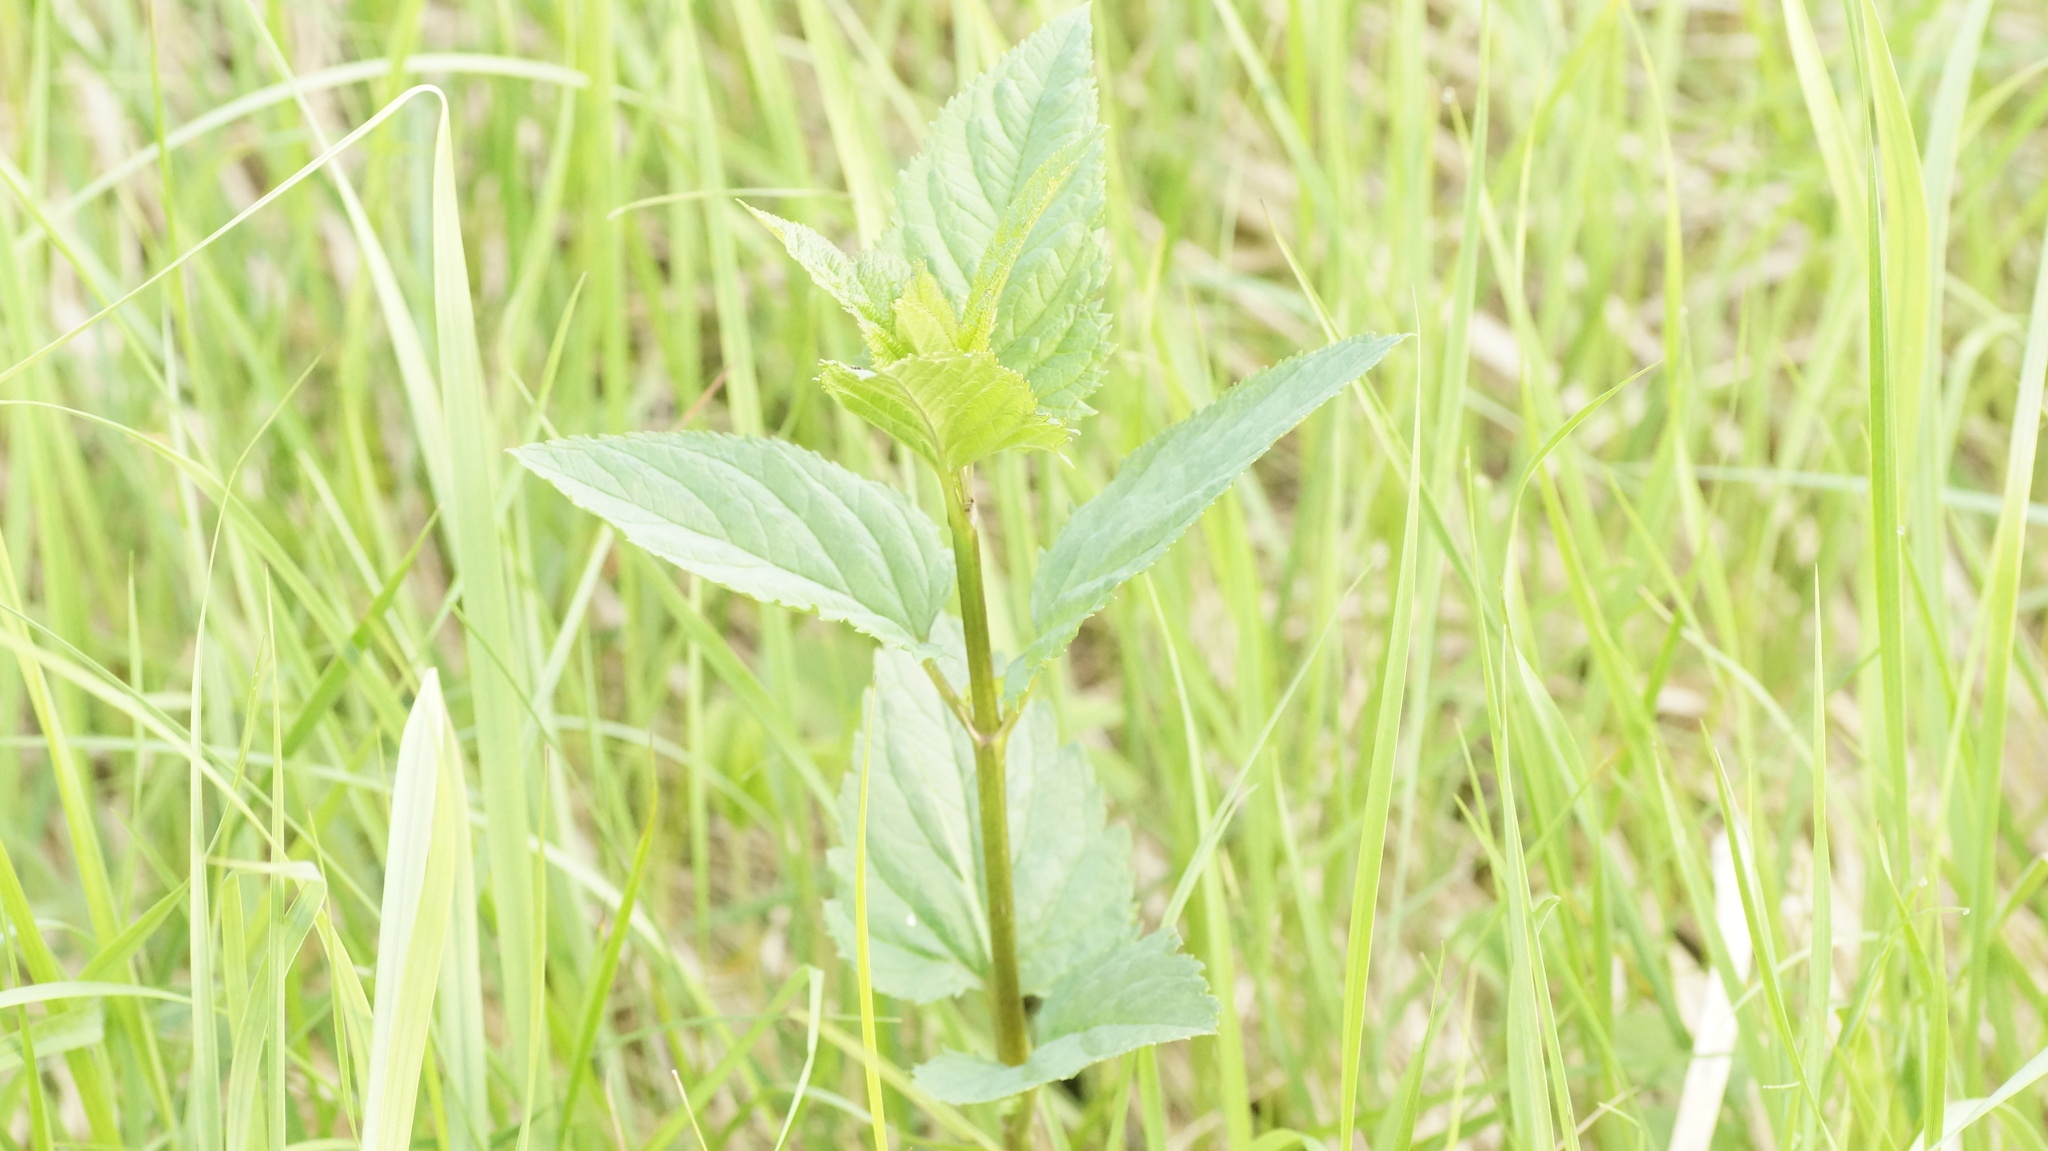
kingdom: Plantae
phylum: Tracheophyta
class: Magnoliopsida
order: Lamiales
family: Scrophulariaceae
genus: Scrophularia
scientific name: Scrophularia nodosa
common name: Common figwort
